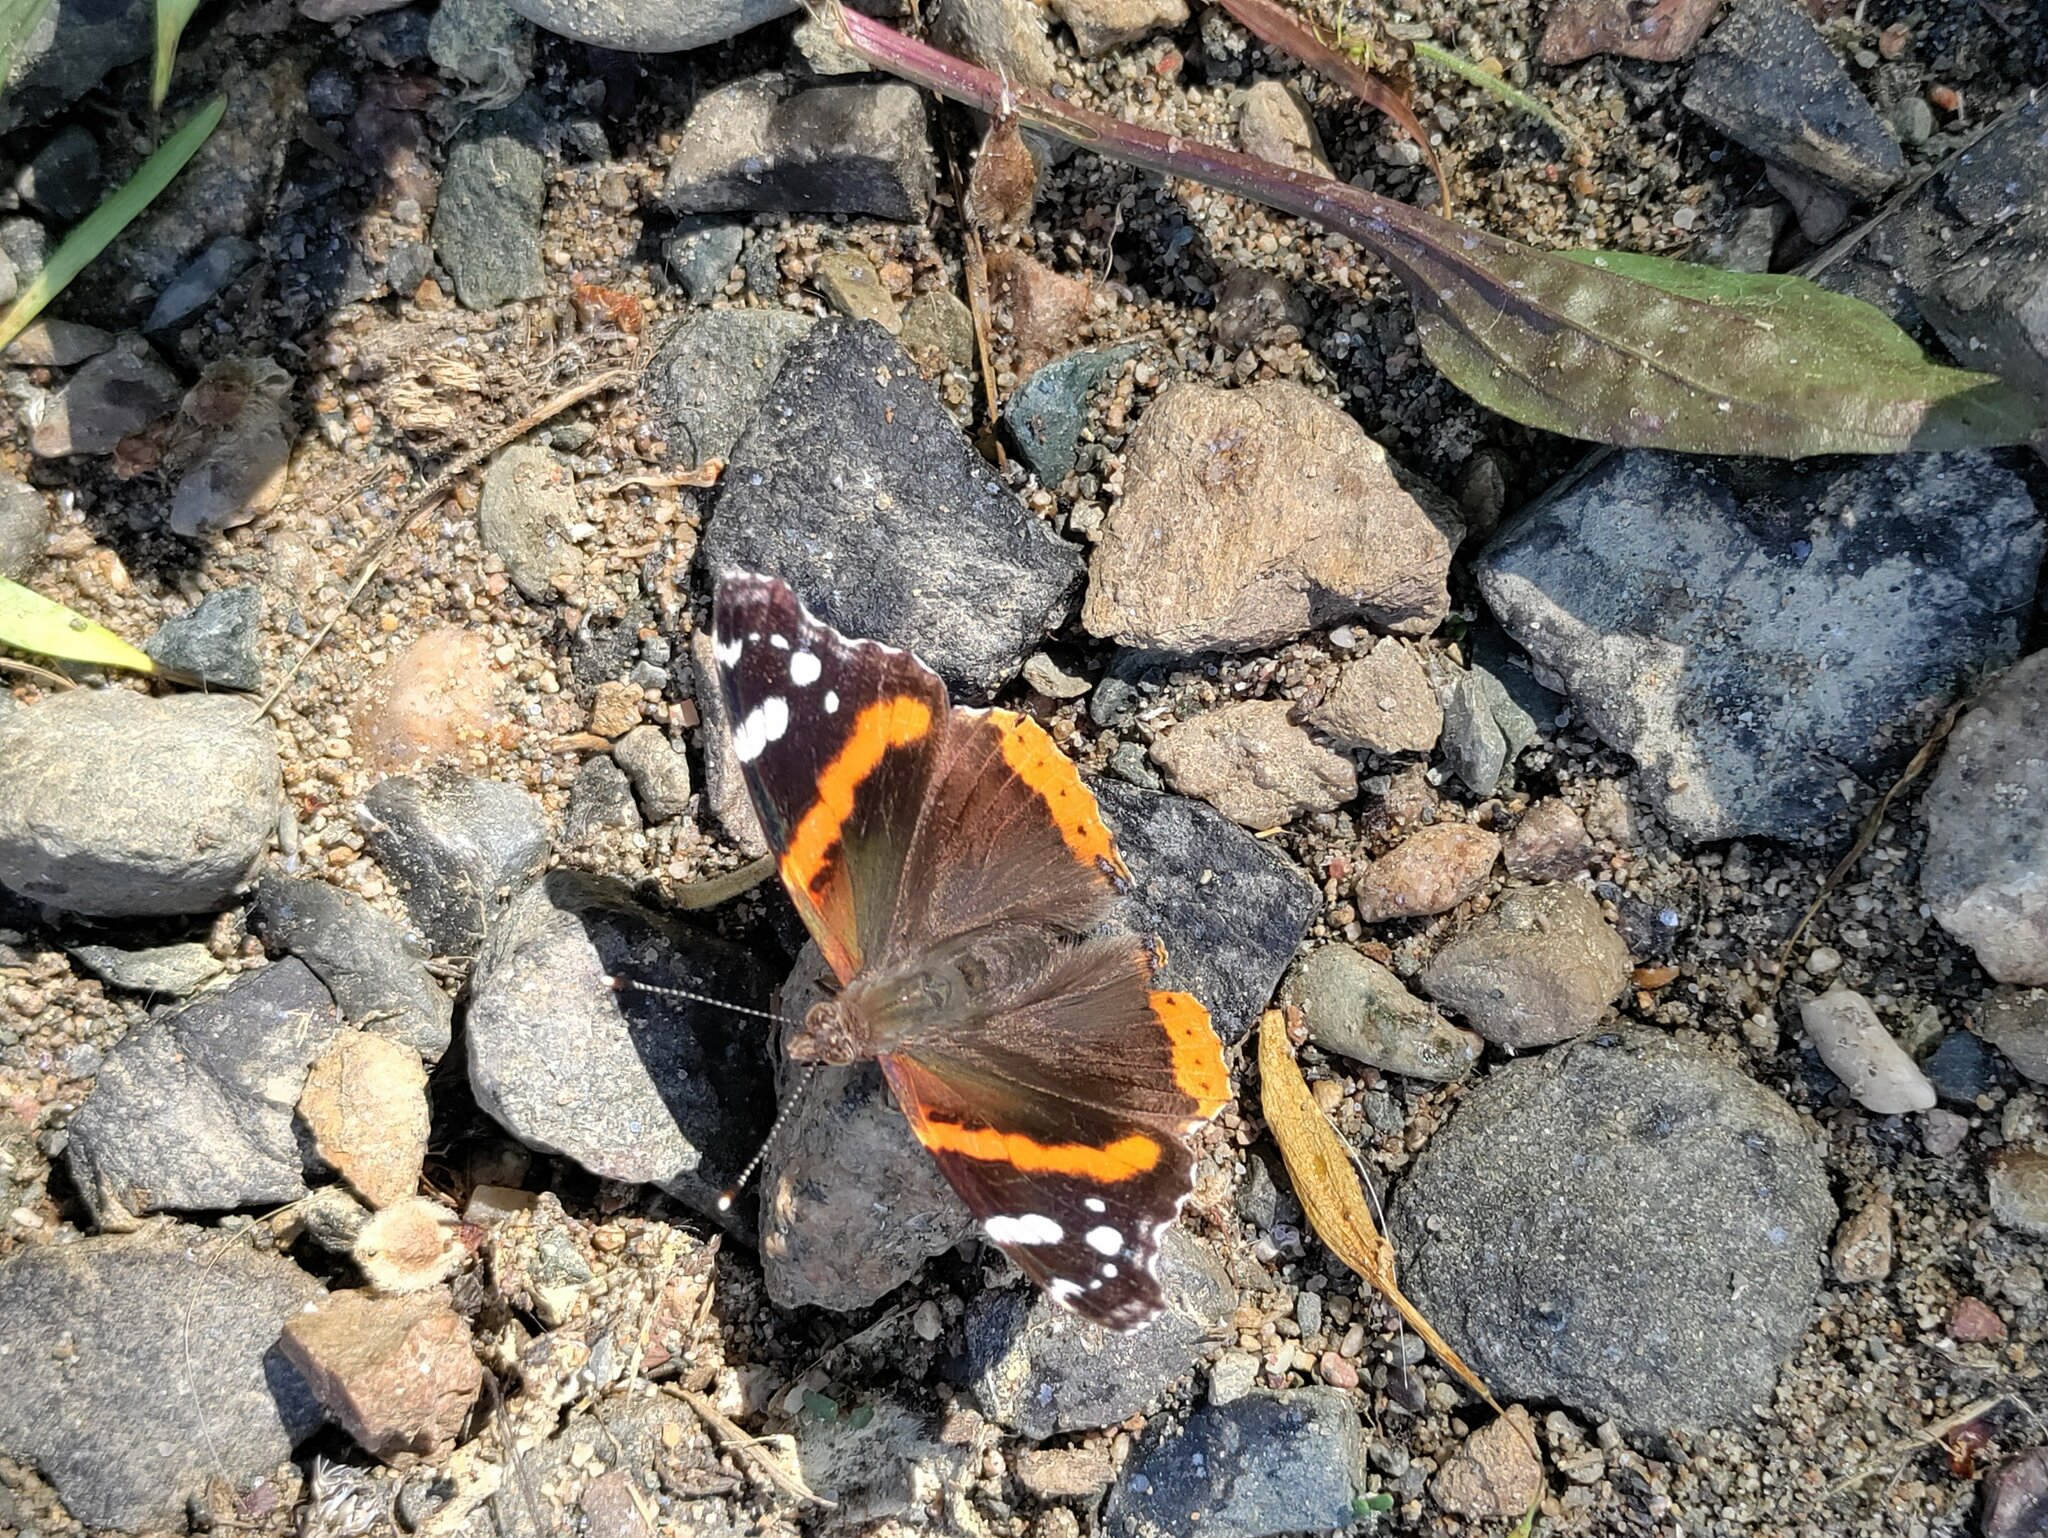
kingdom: Animalia
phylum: Arthropoda
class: Insecta
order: Lepidoptera
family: Nymphalidae
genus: Vanessa
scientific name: Vanessa atalanta
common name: Red admiral
